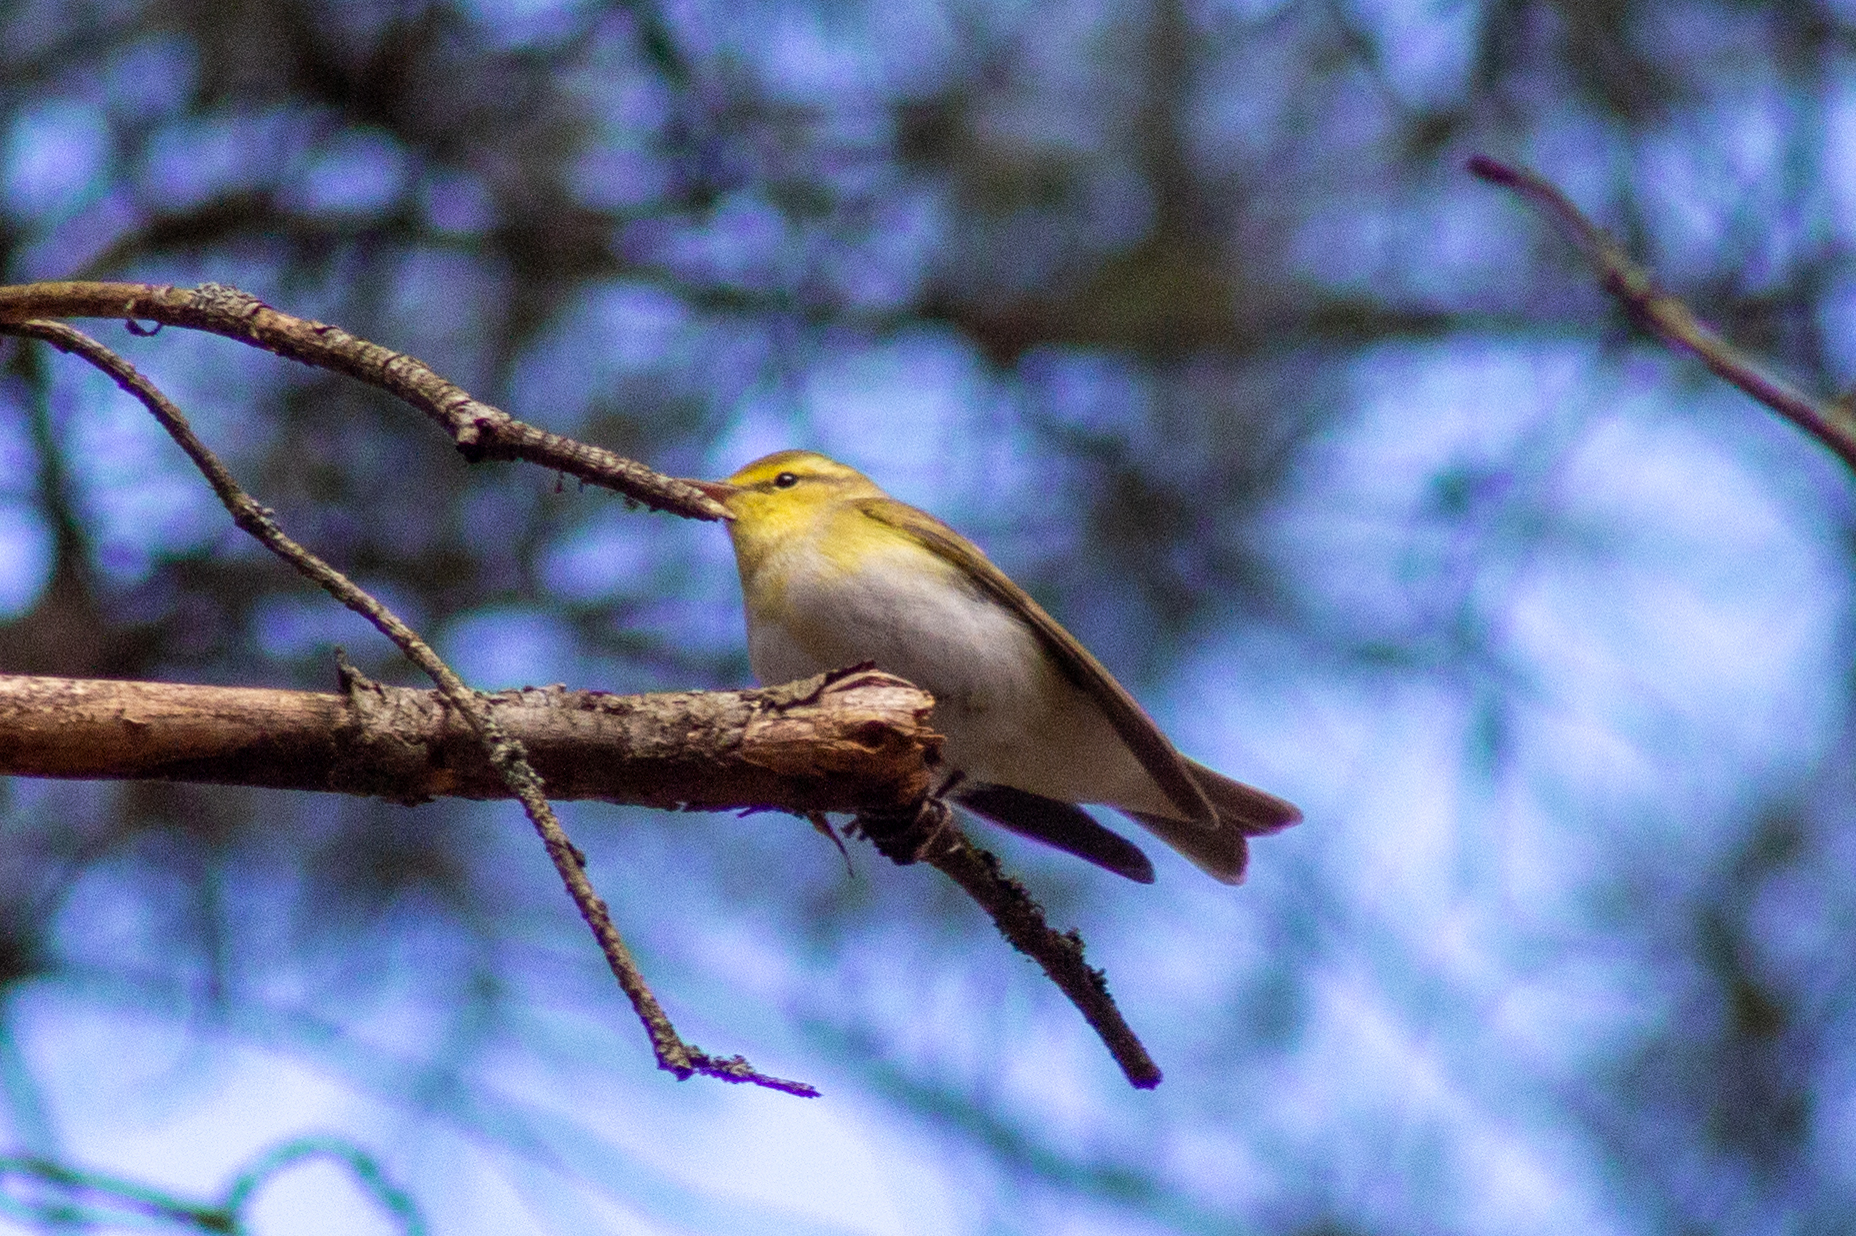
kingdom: Animalia
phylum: Chordata
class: Aves
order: Passeriformes
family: Phylloscopidae
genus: Phylloscopus
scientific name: Phylloscopus sibillatrix
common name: Wood warbler
